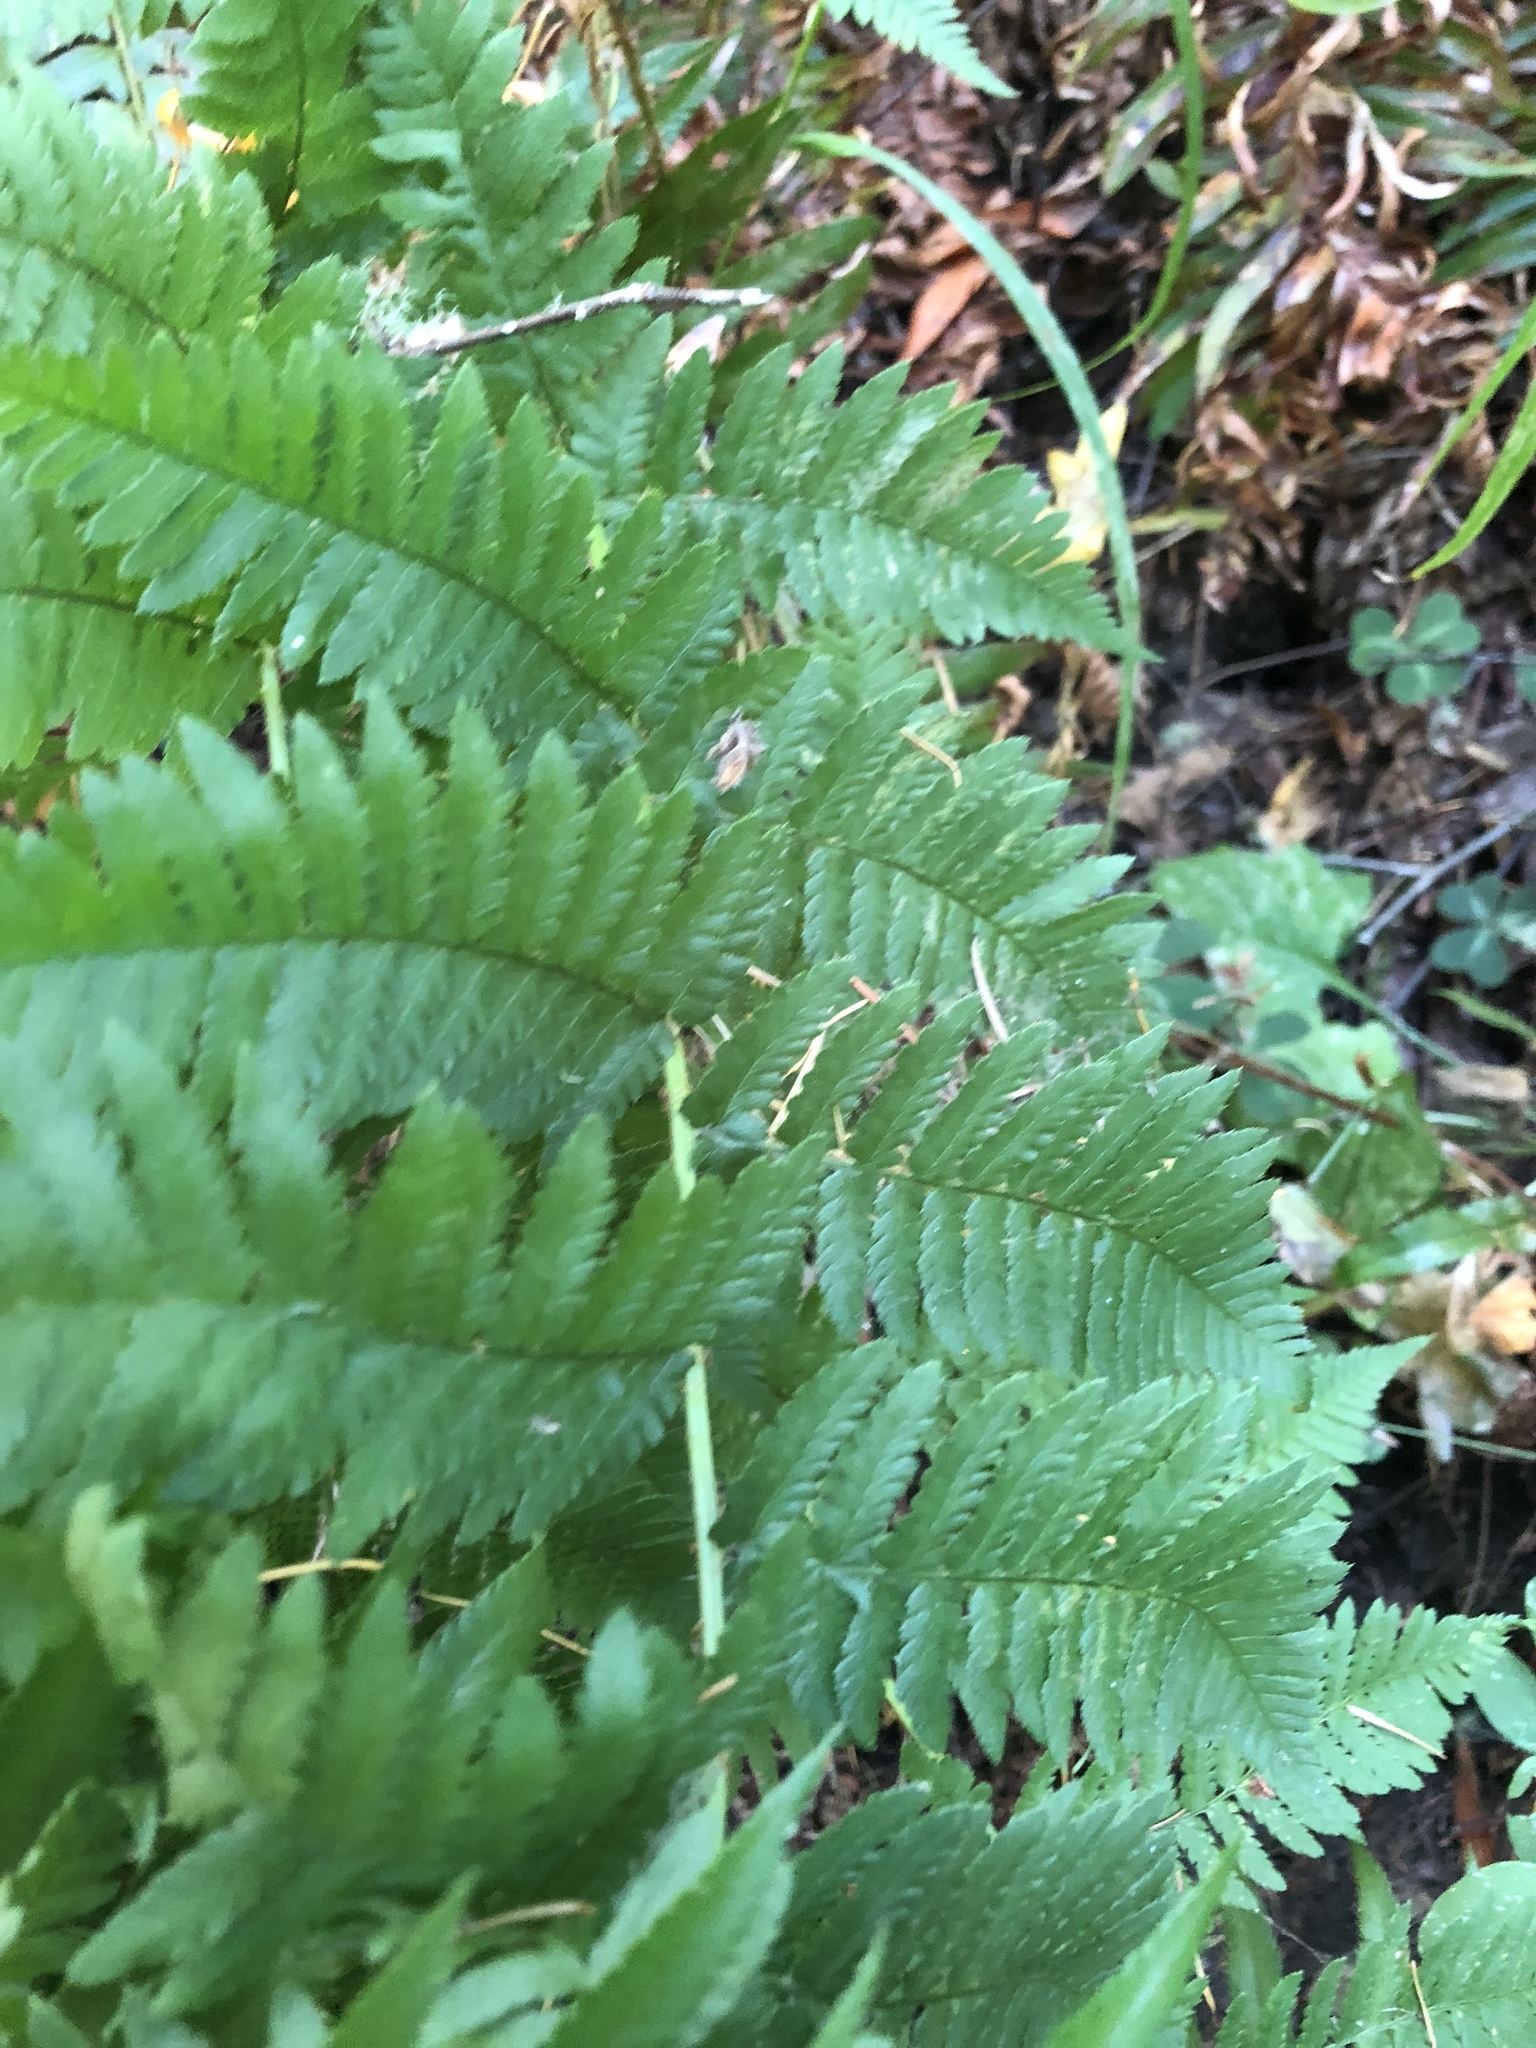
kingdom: Plantae
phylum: Tracheophyta
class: Polypodiopsida
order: Polypodiales
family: Dryopteridaceae
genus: Dryopteris
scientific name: Dryopteris arguta
